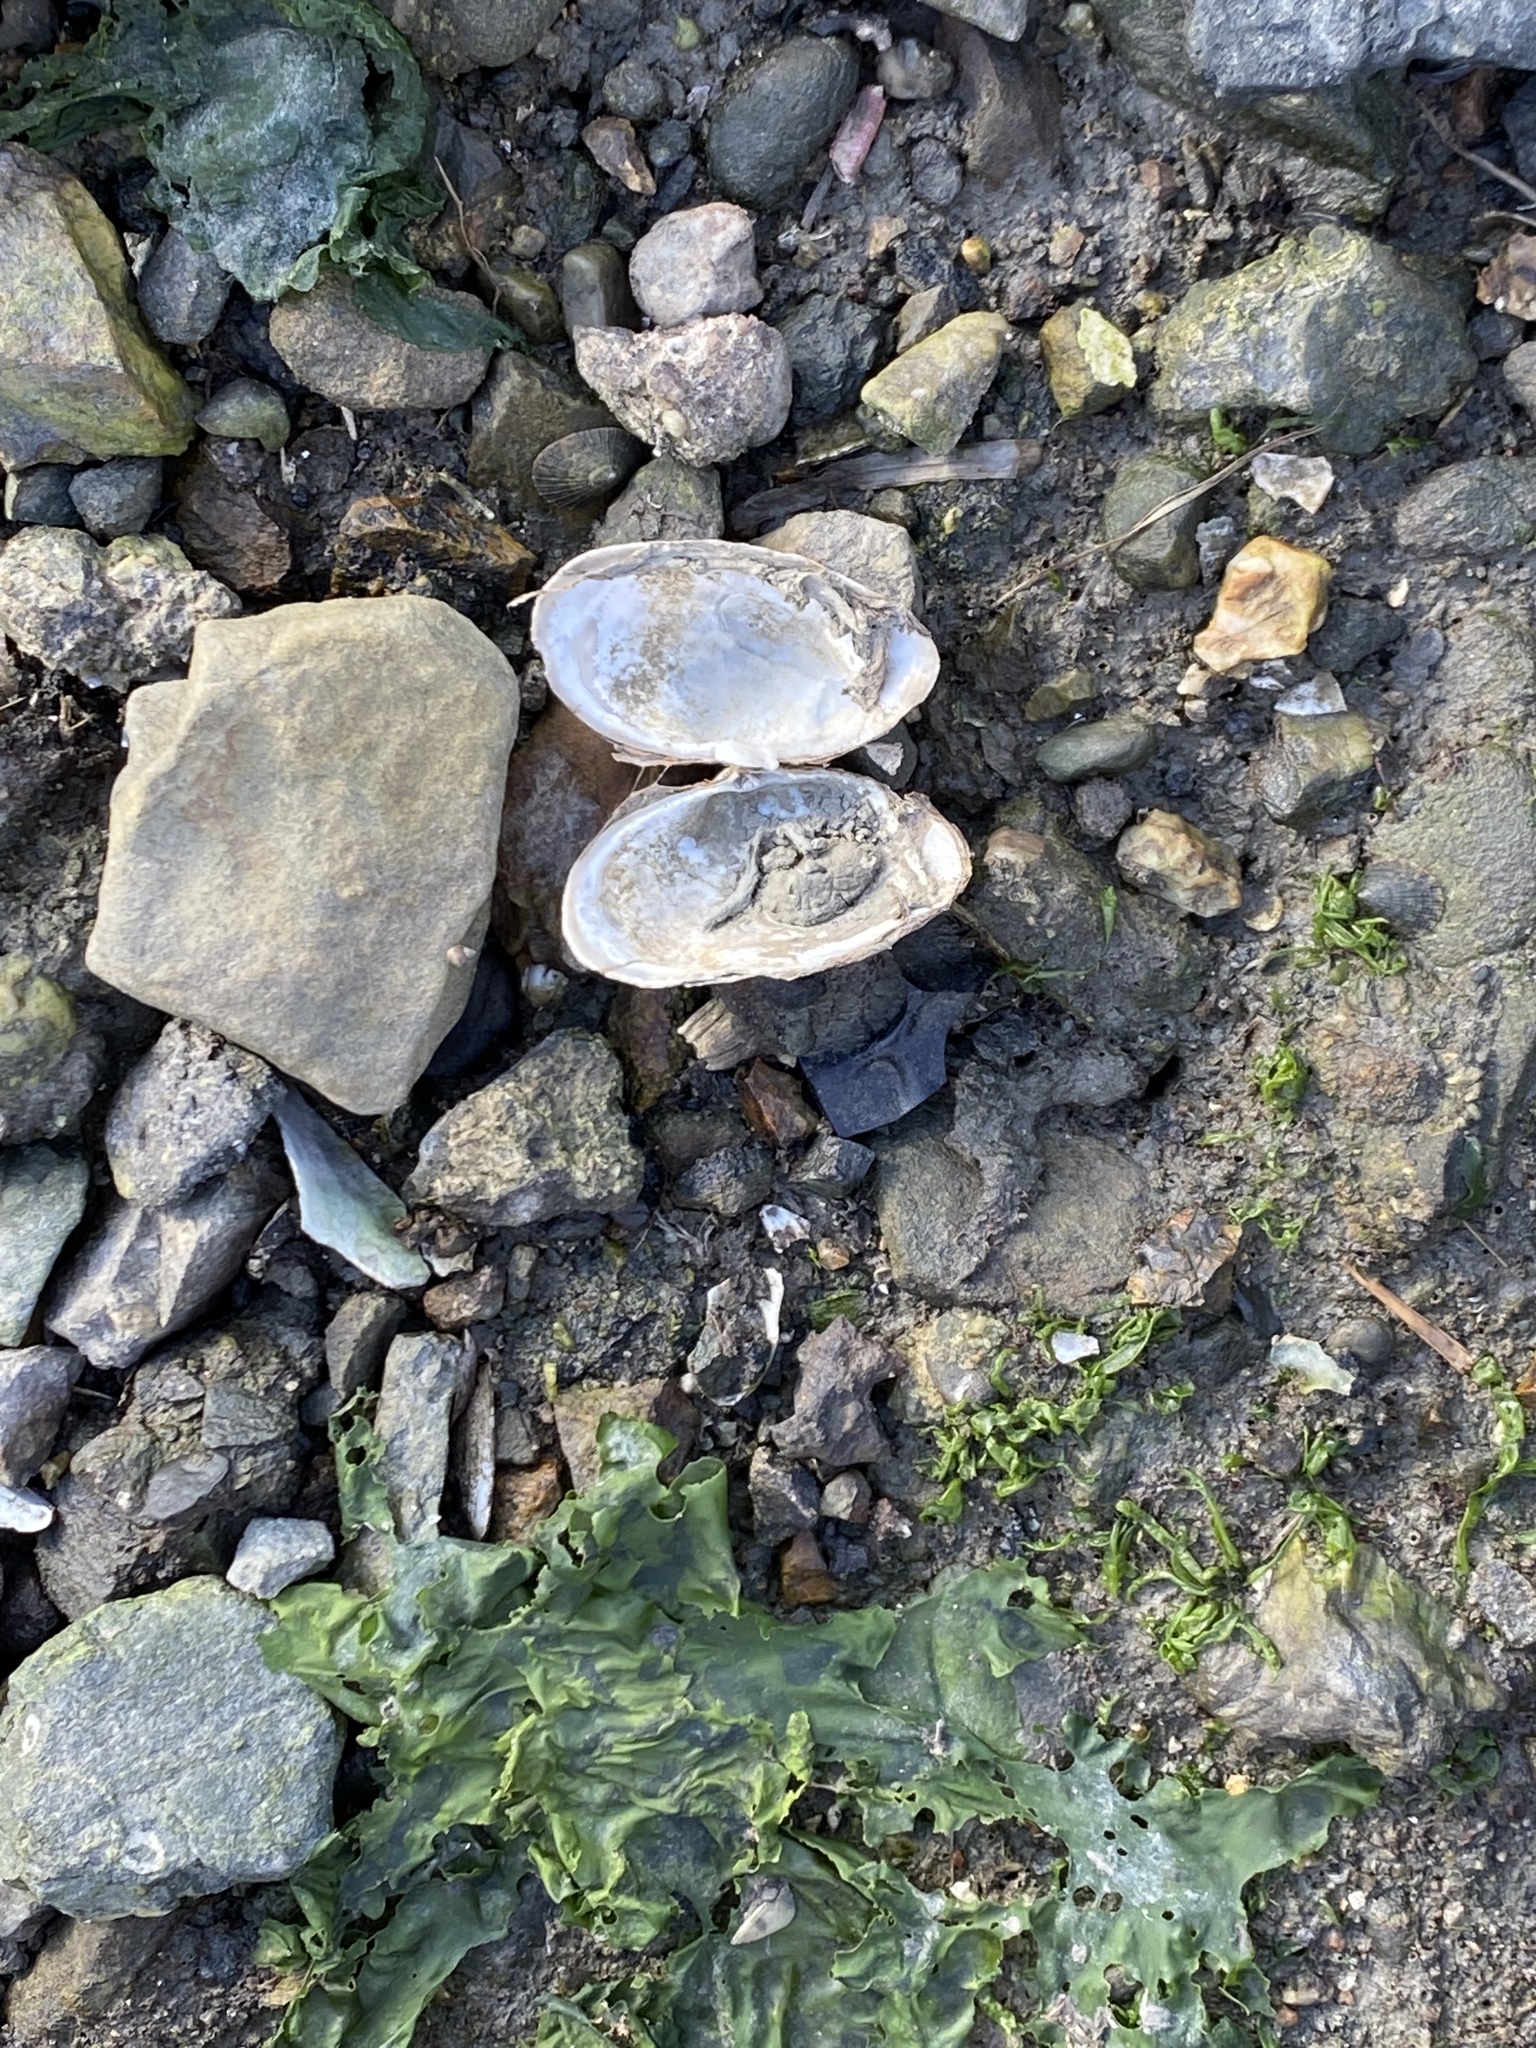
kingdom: Animalia
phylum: Mollusca
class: Bivalvia
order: Myida
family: Myidae
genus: Mya
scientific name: Mya arenaria
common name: Soft-shelled clam
